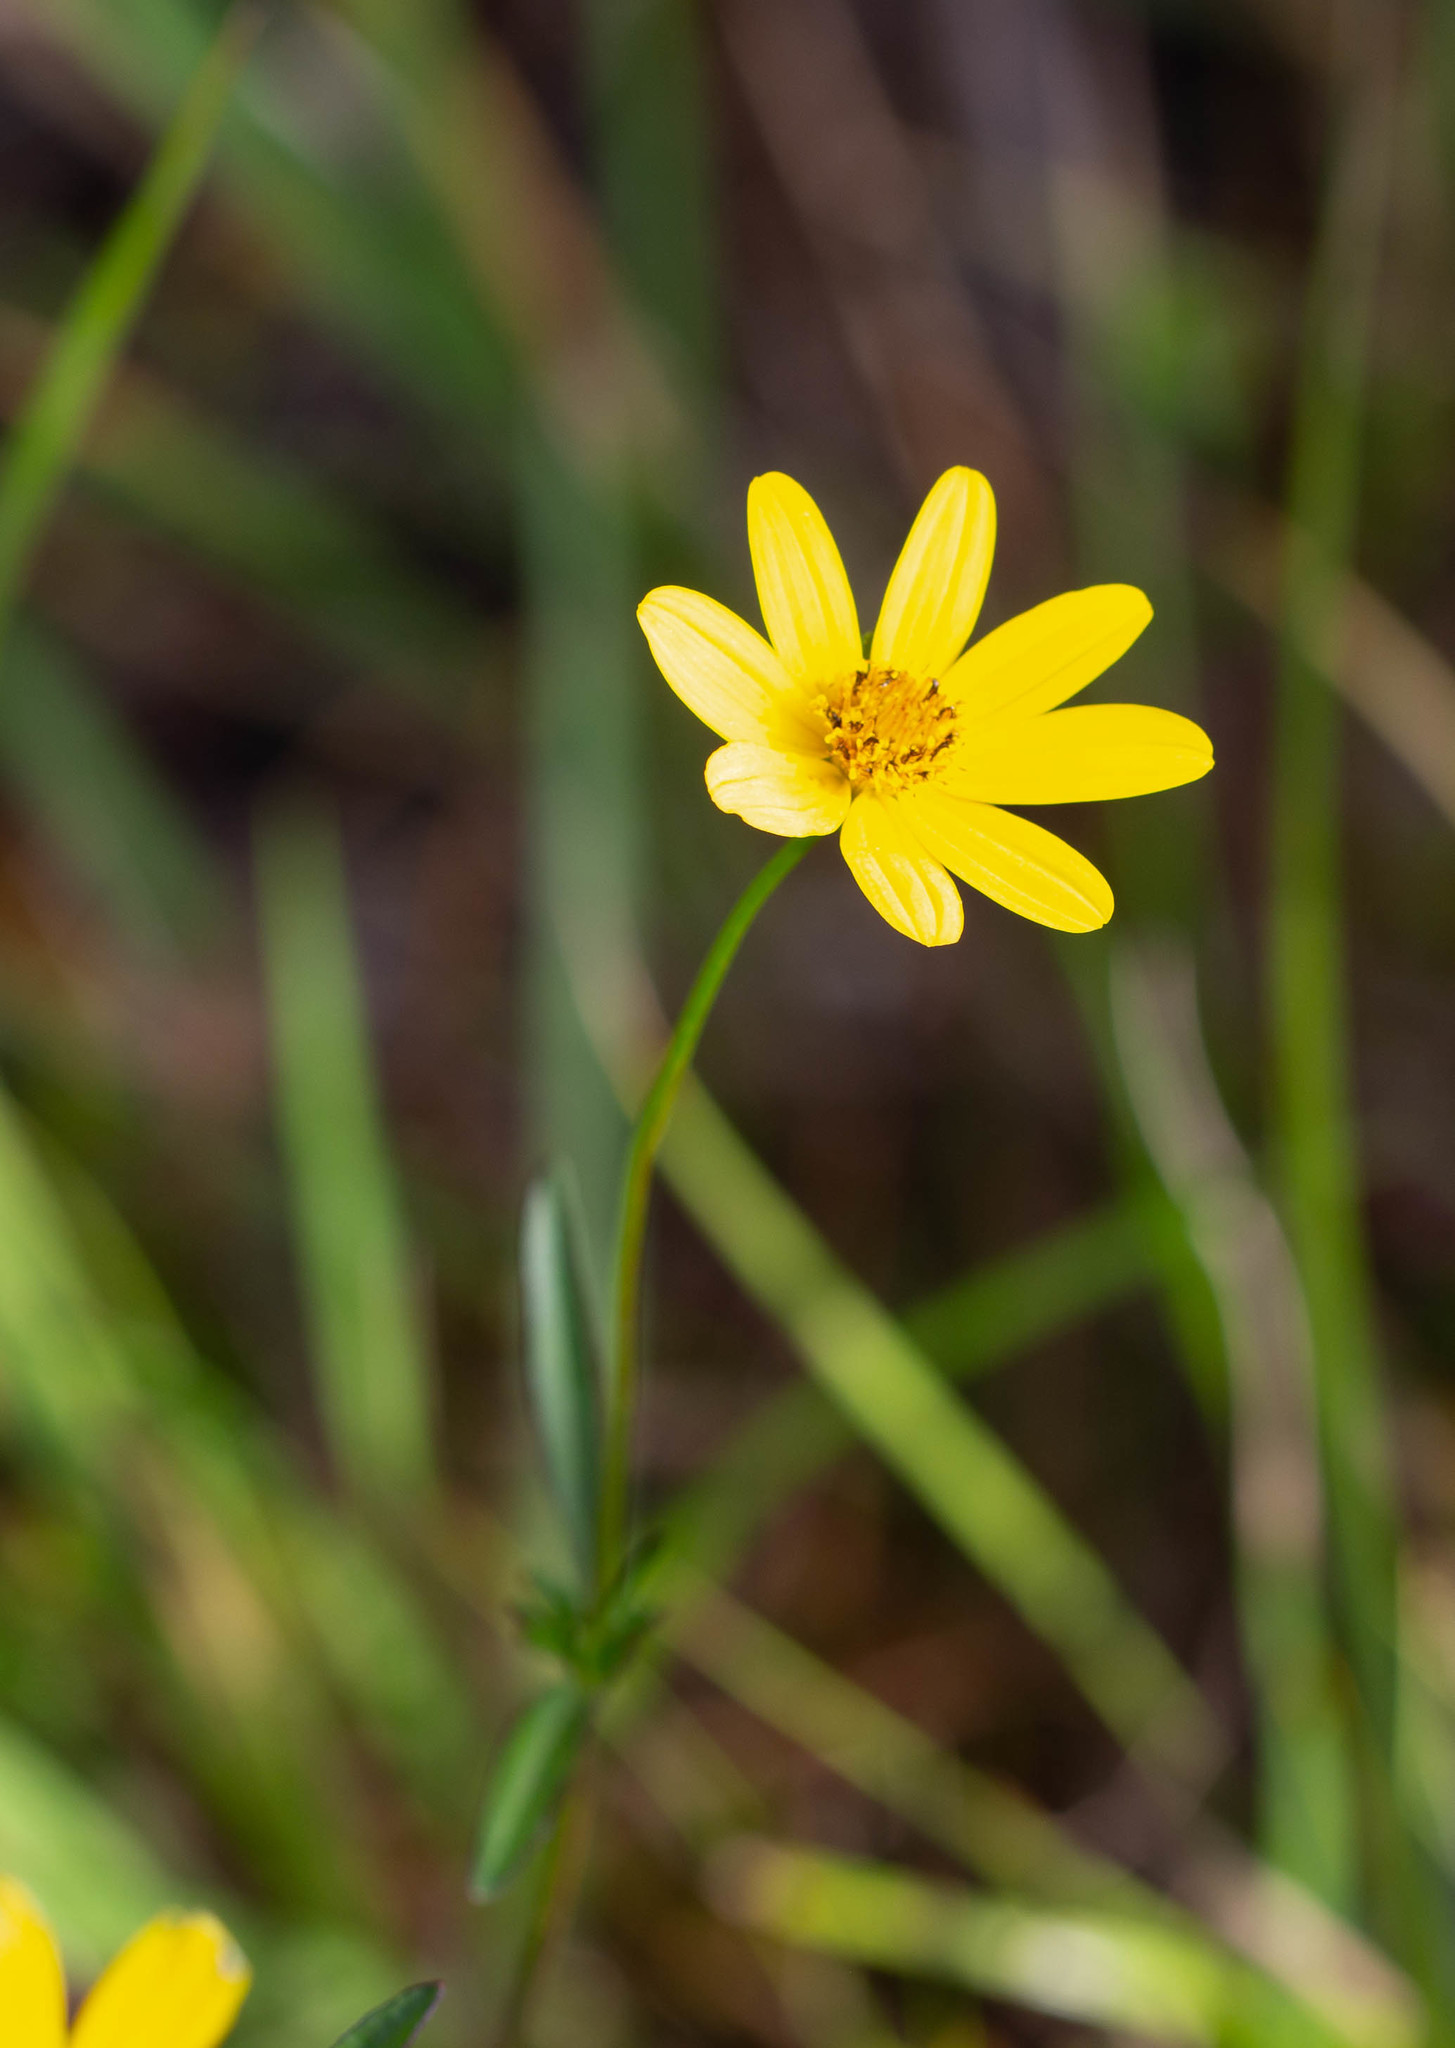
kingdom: Plantae
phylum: Tracheophyta
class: Magnoliopsida
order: Asterales
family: Asteraceae
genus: Bidens
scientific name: Bidens mitis
